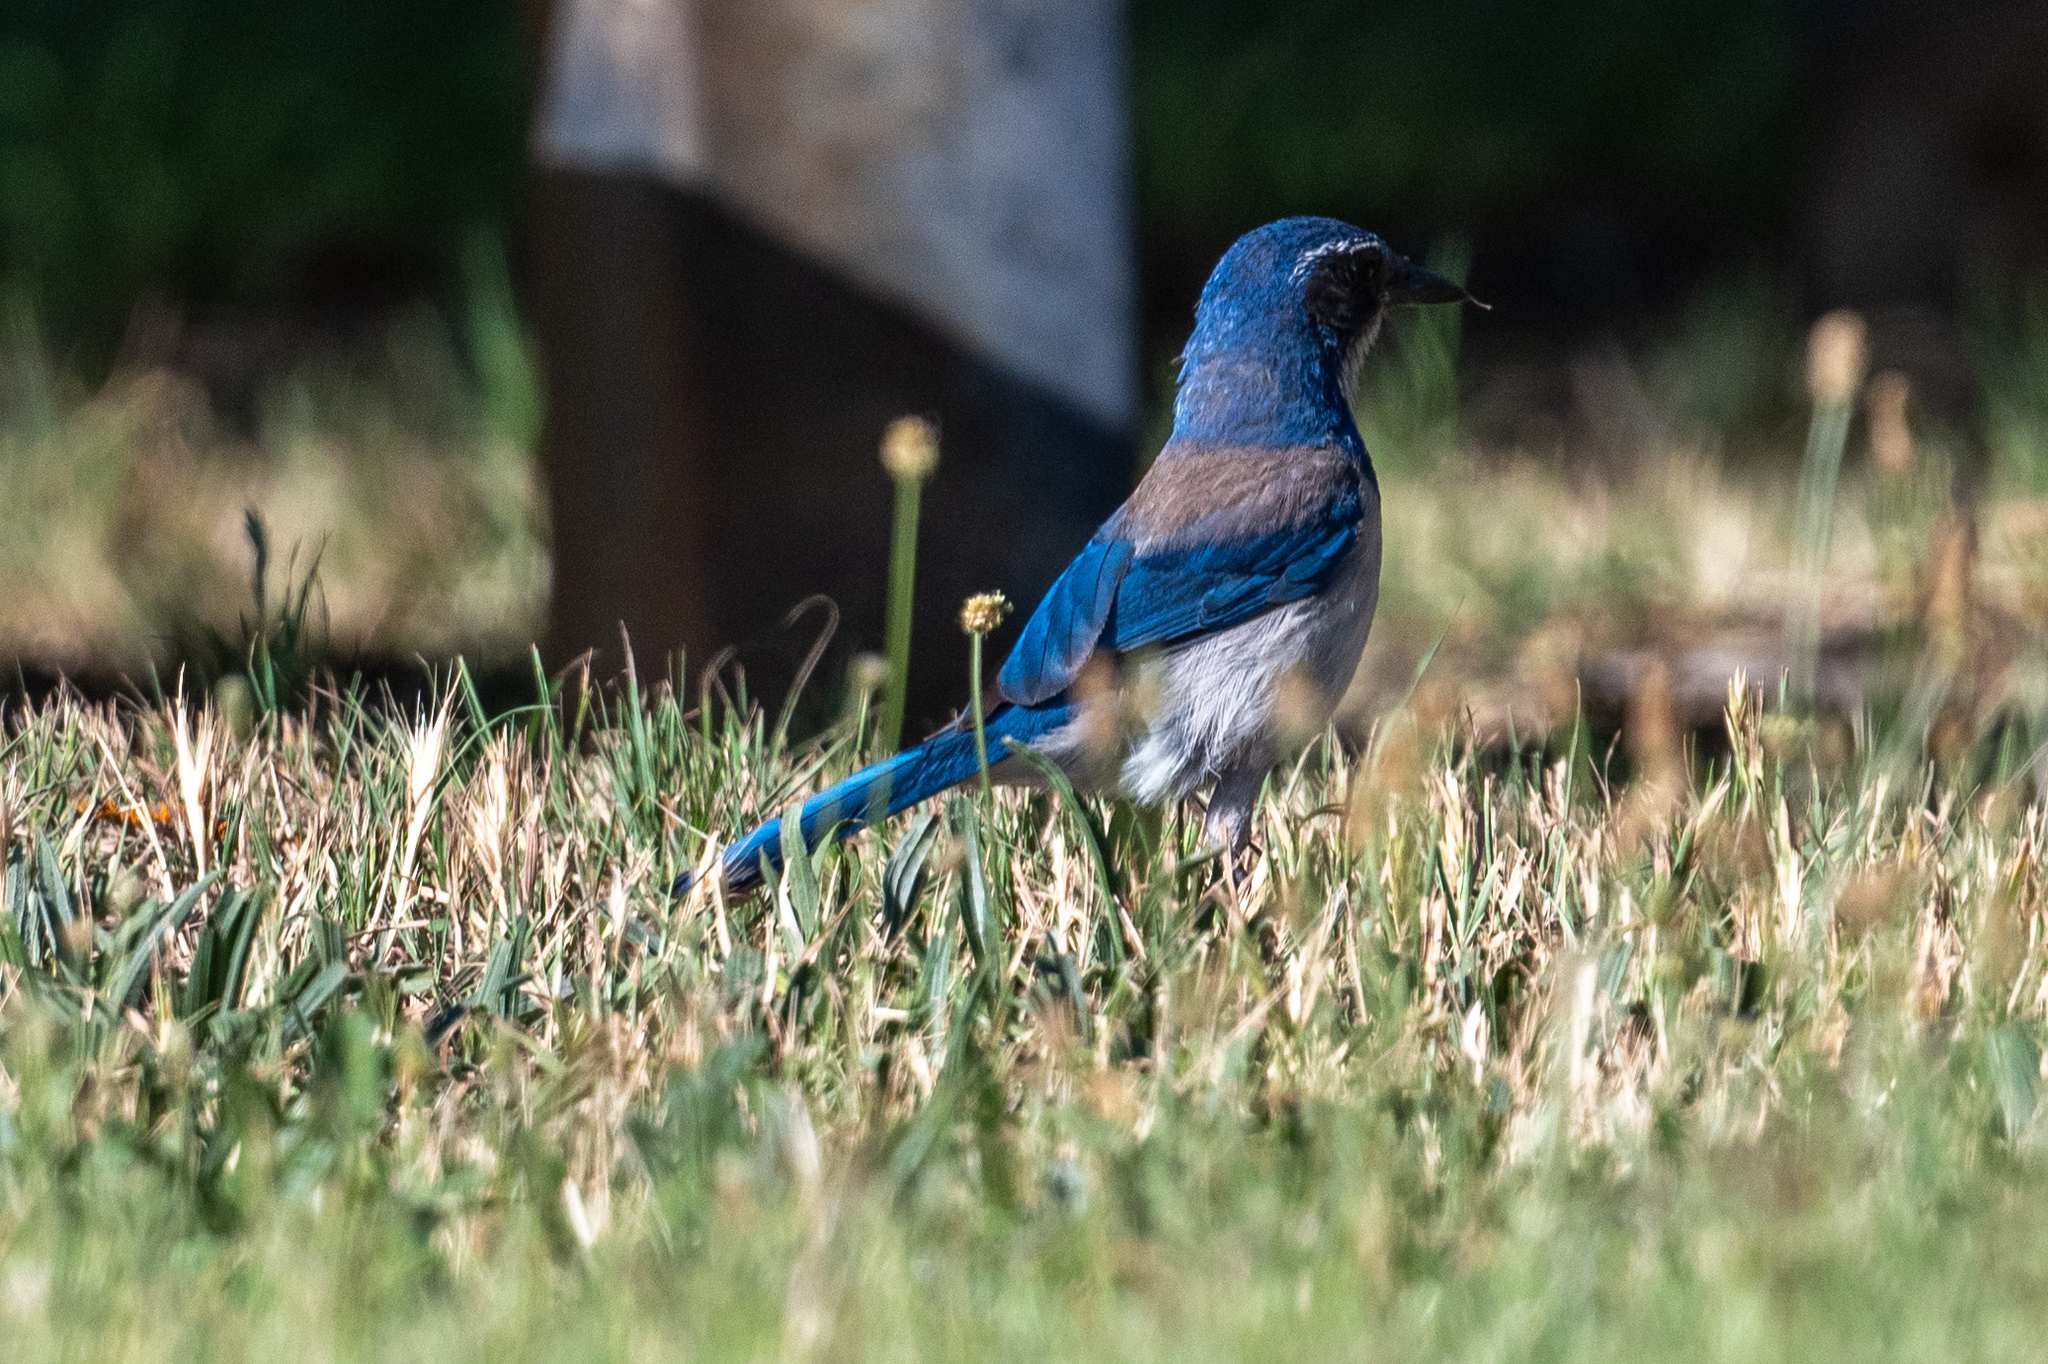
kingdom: Animalia
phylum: Chordata
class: Aves
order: Passeriformes
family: Corvidae
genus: Aphelocoma
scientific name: Aphelocoma californica
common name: California scrub-jay
